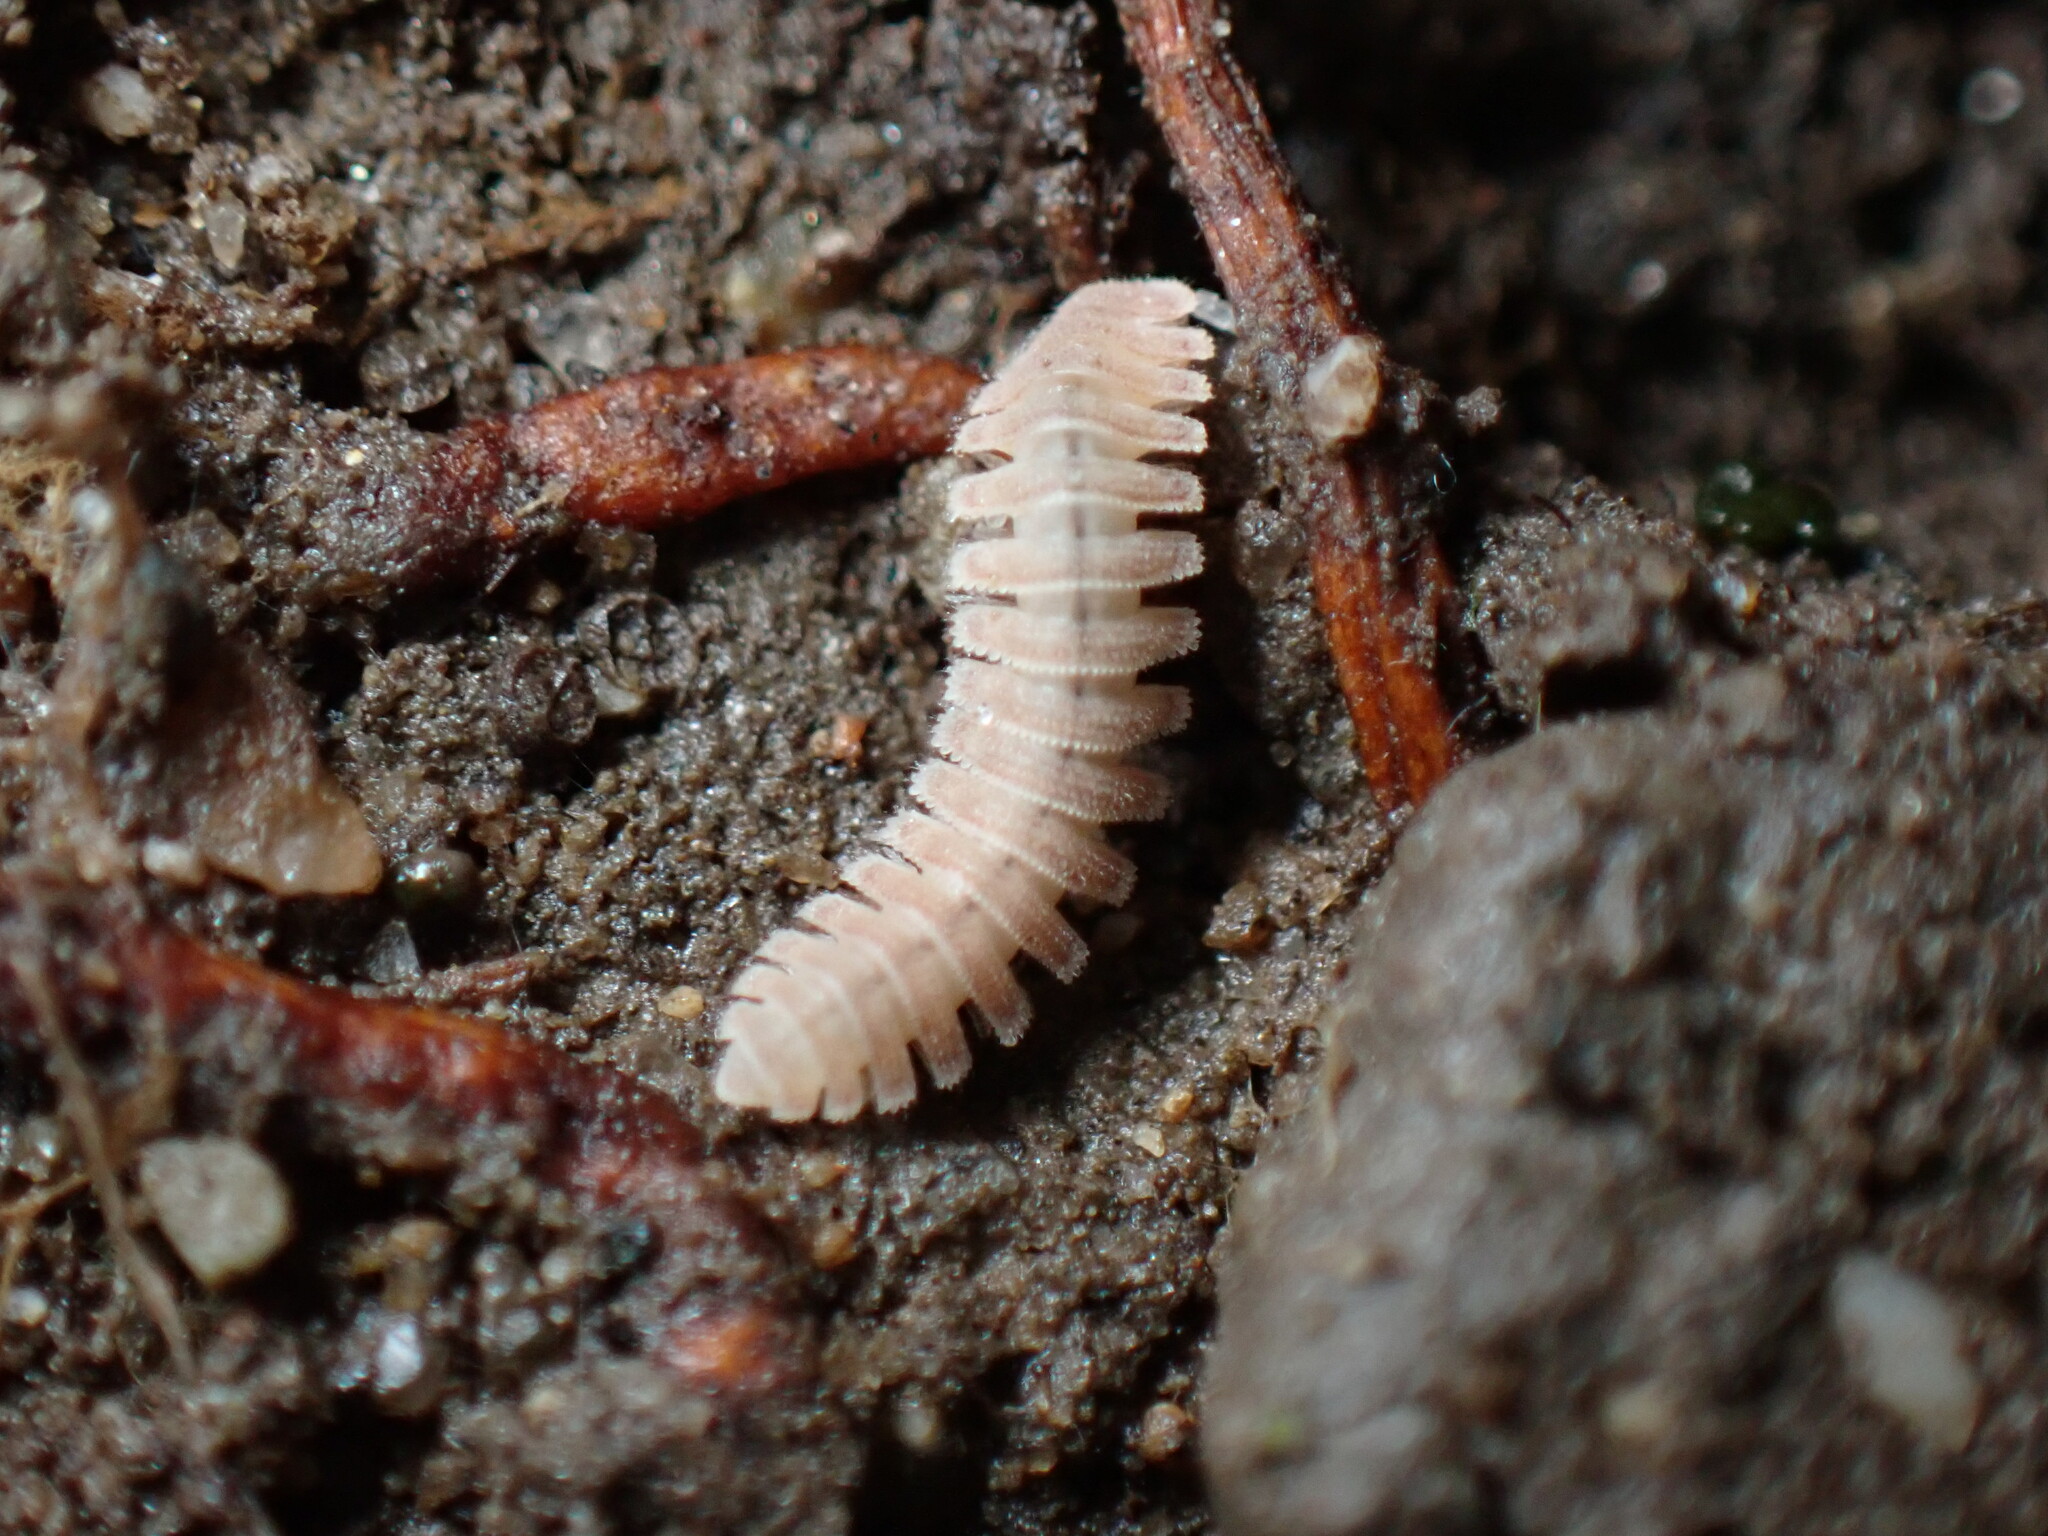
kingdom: Animalia
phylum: Arthropoda
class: Diplopoda
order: Polydesmida
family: Cryptodesmidae
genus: Niponia
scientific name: Niponia nodulosa
